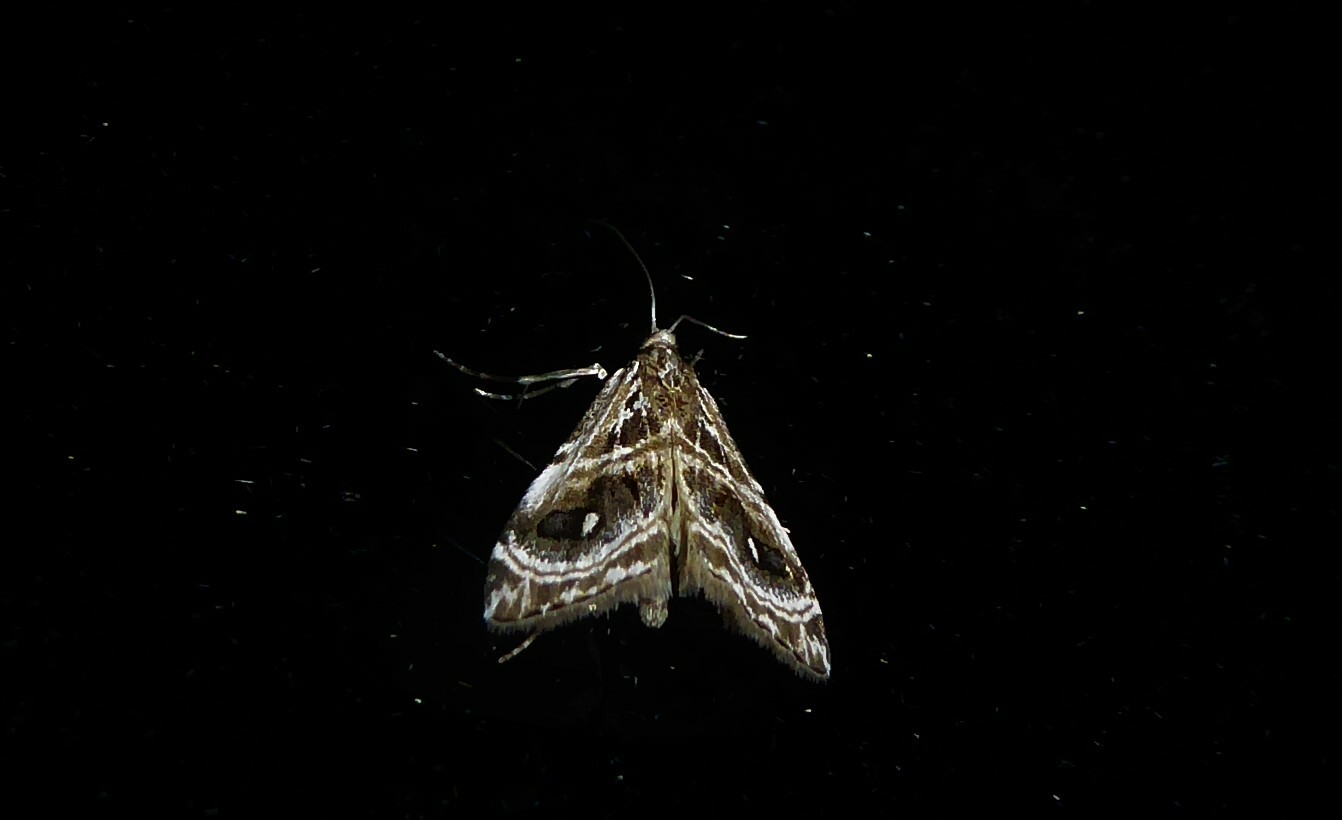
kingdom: Animalia
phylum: Arthropoda
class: Insecta
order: Lepidoptera
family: Crambidae
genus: Gadira
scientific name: Gadira acerella
